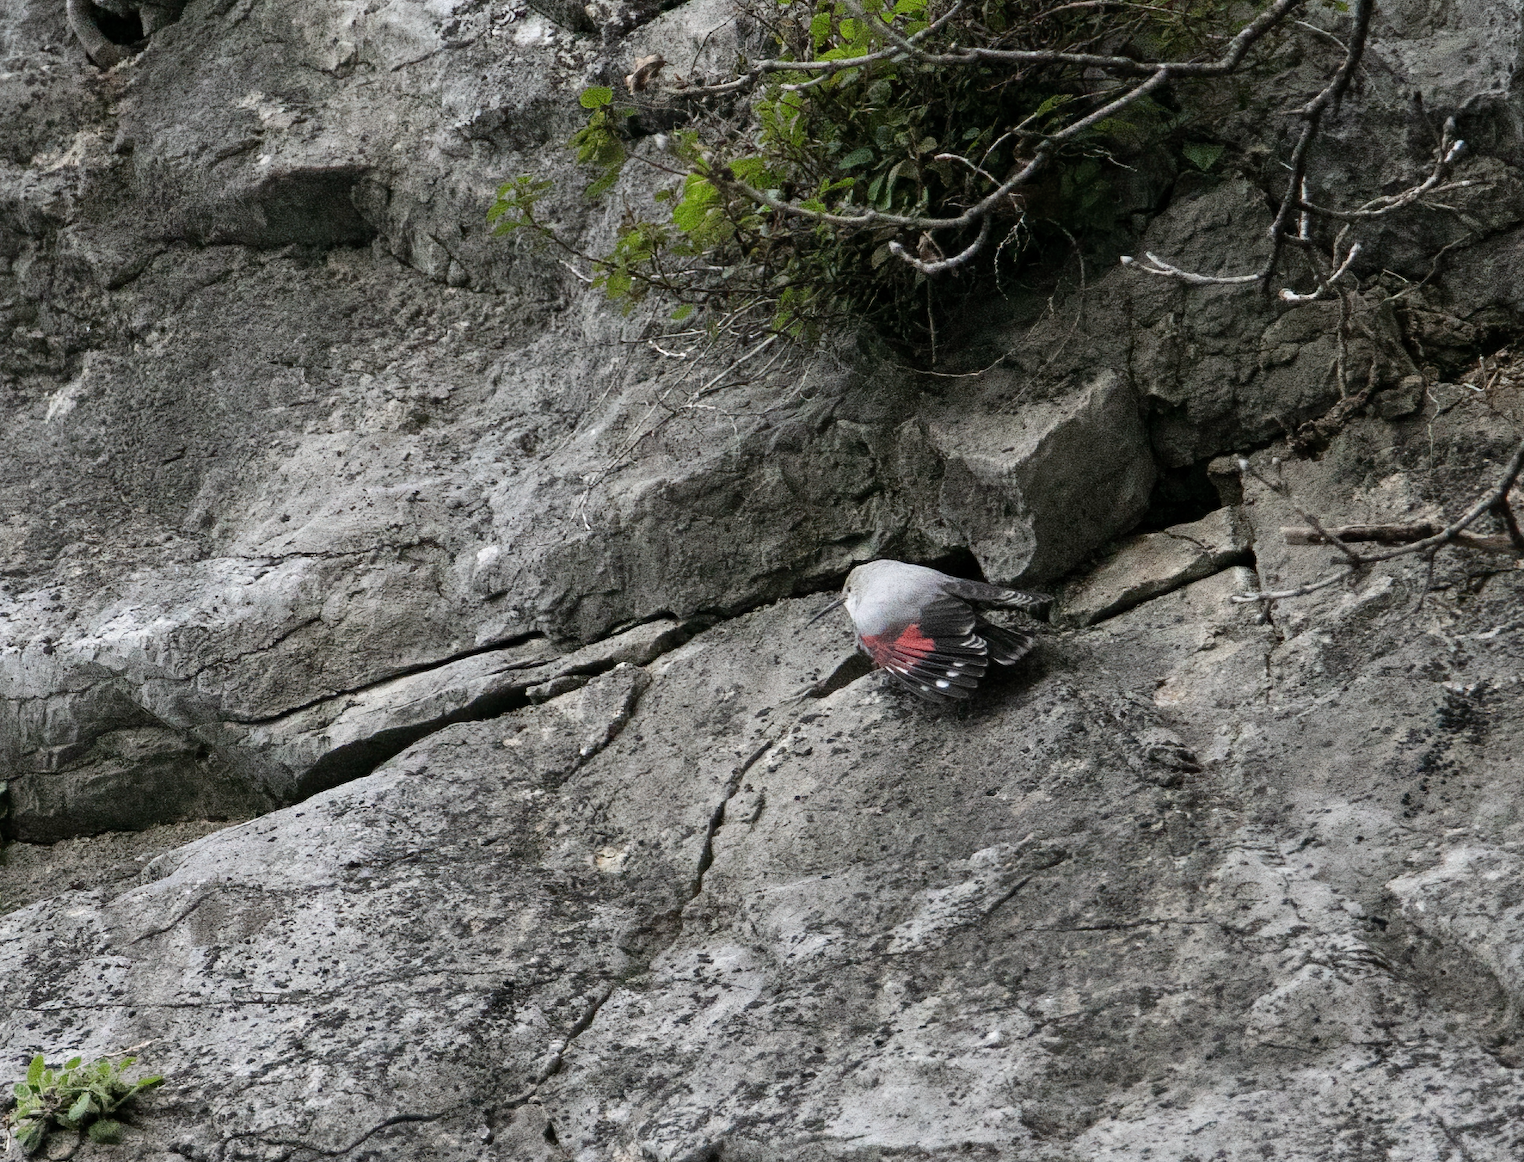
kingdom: Animalia
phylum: Chordata
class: Aves
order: Passeriformes
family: Tichodromidae
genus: Tichodroma
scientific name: Tichodroma muraria
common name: Wallcreeper
